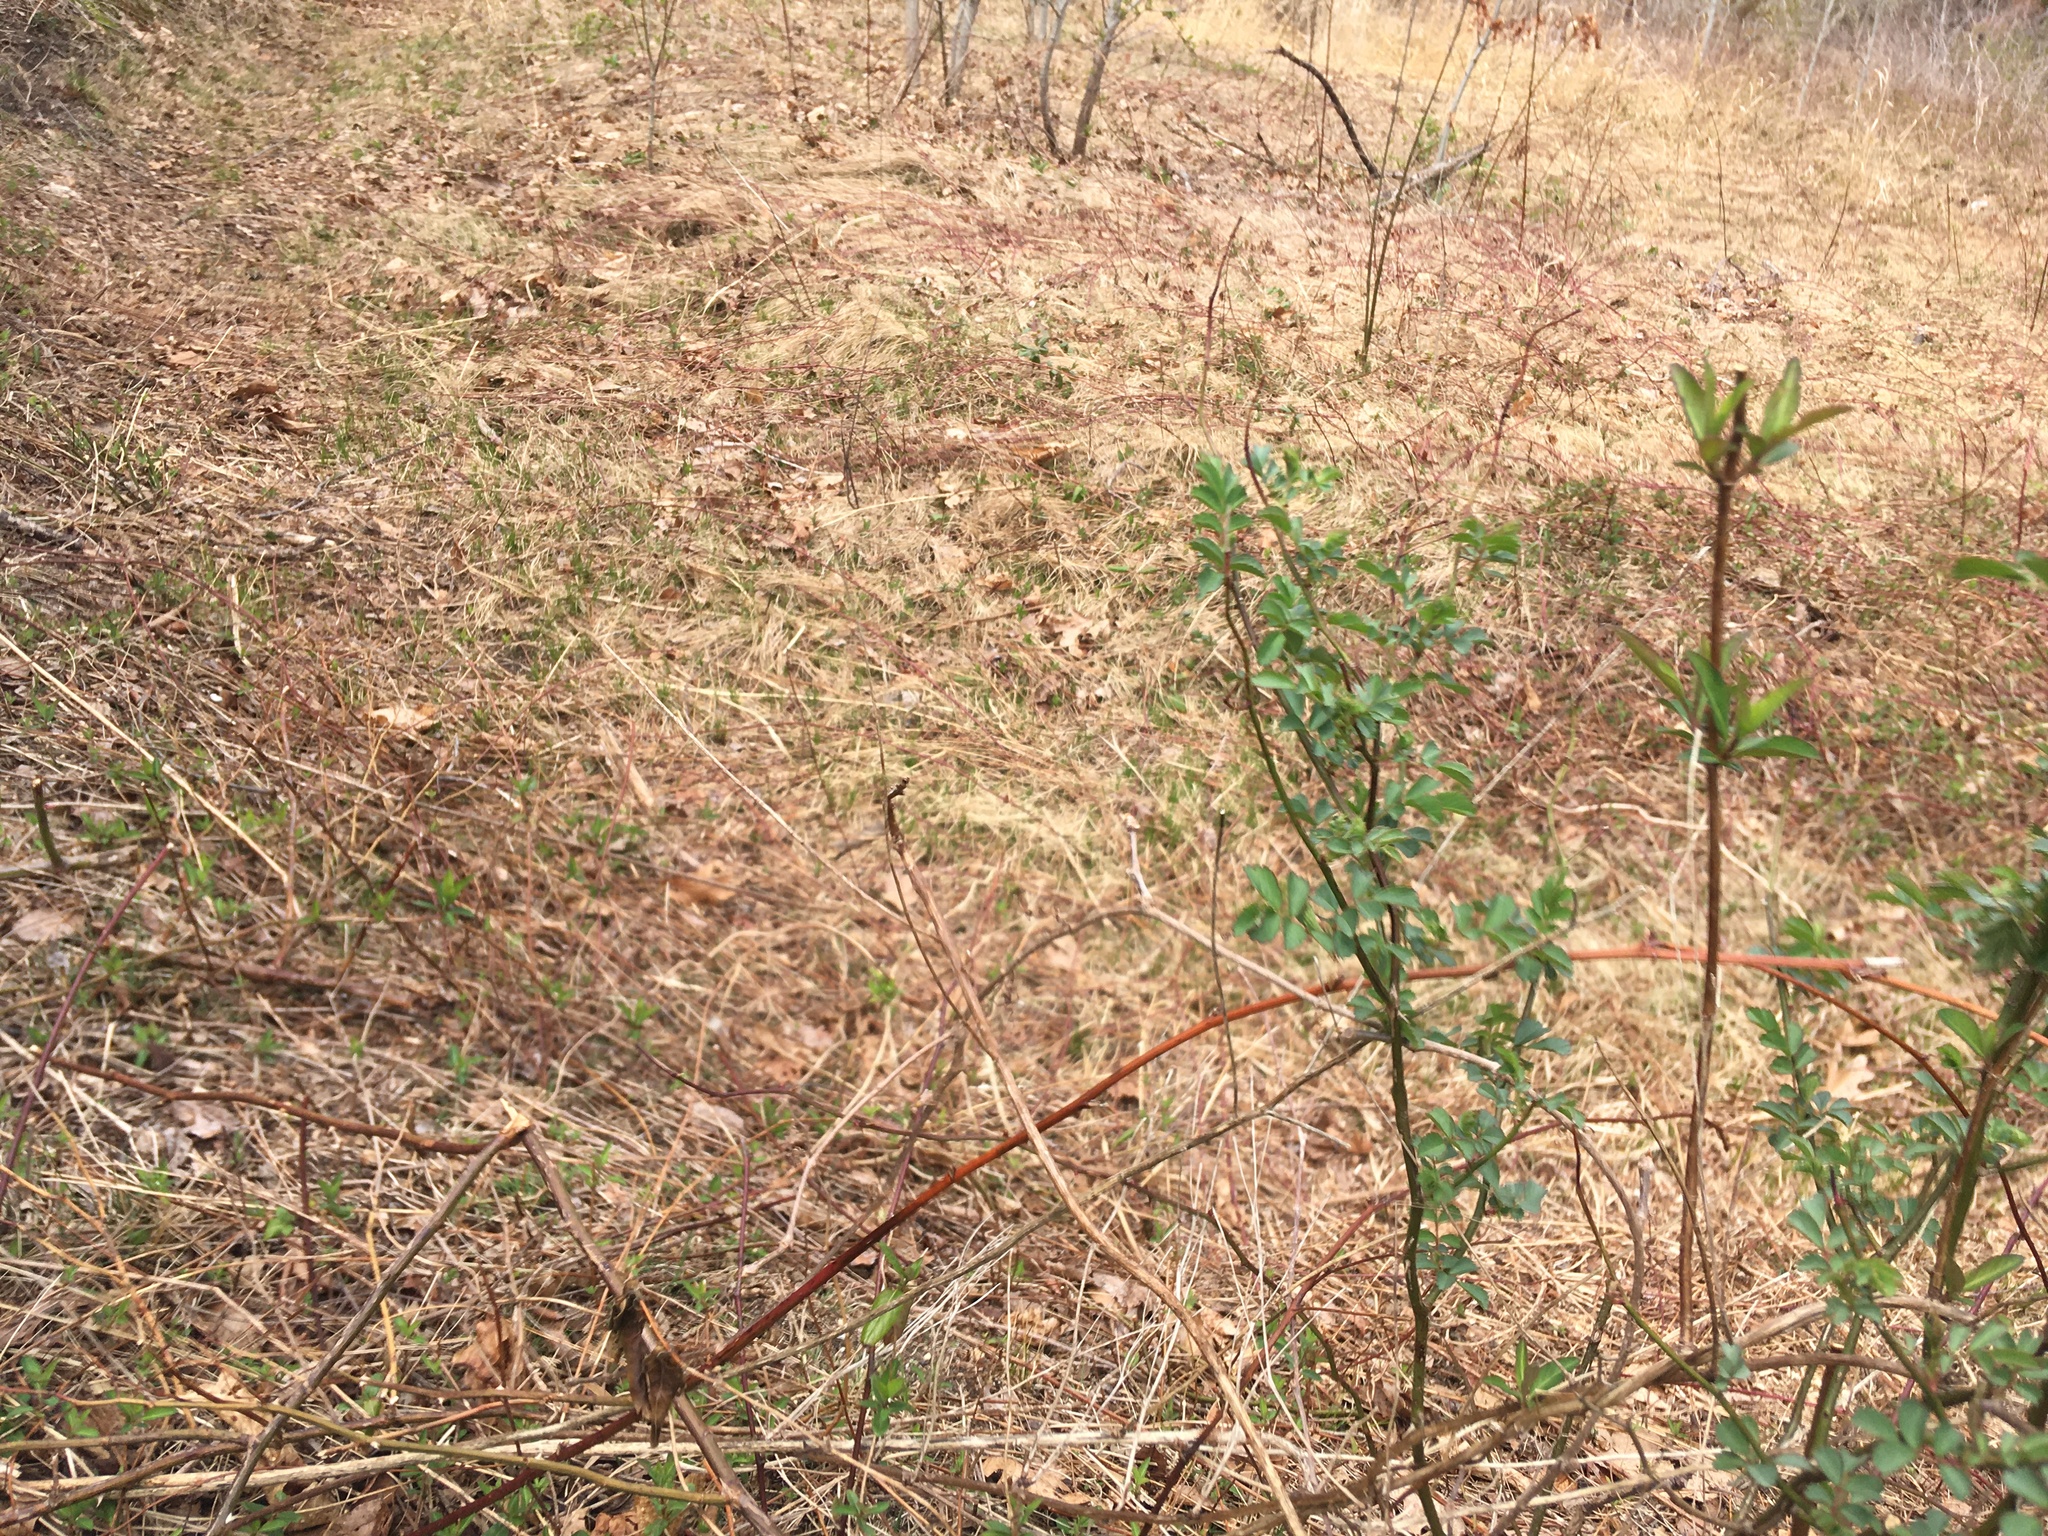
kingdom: Plantae
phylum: Tracheophyta
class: Magnoliopsida
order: Rosales
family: Rosaceae
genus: Rosa
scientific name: Rosa multiflora
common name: Multiflora rose
